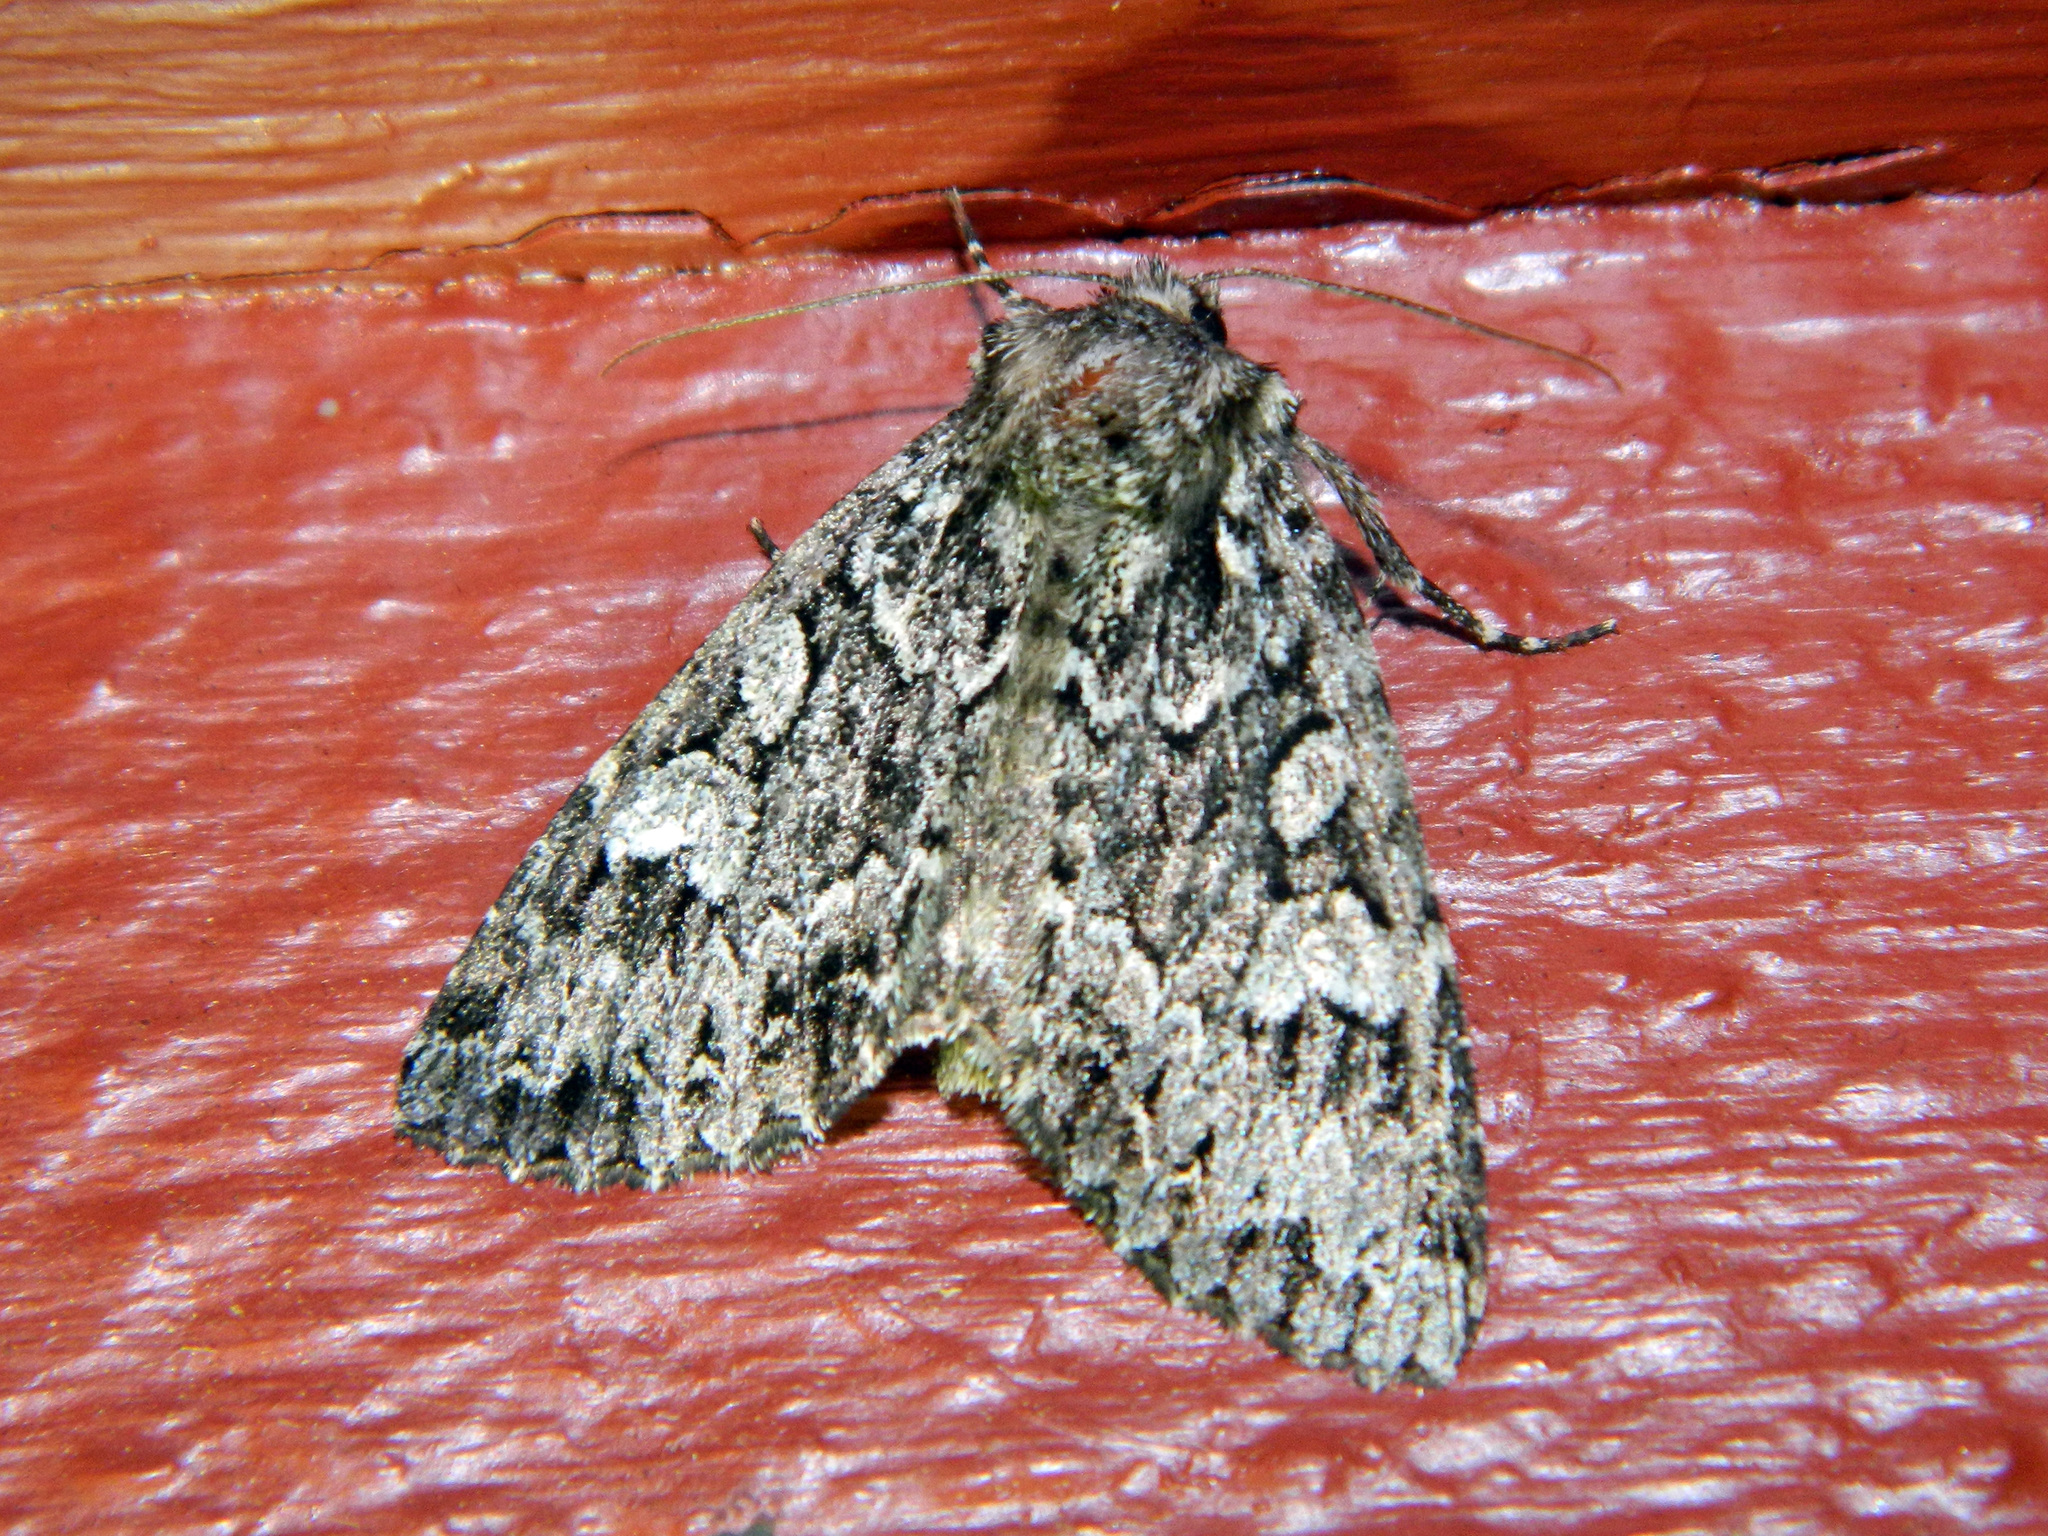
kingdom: Animalia
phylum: Arthropoda
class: Insecta
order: Lepidoptera
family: Noctuidae
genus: Platypolia
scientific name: Platypolia anceps
